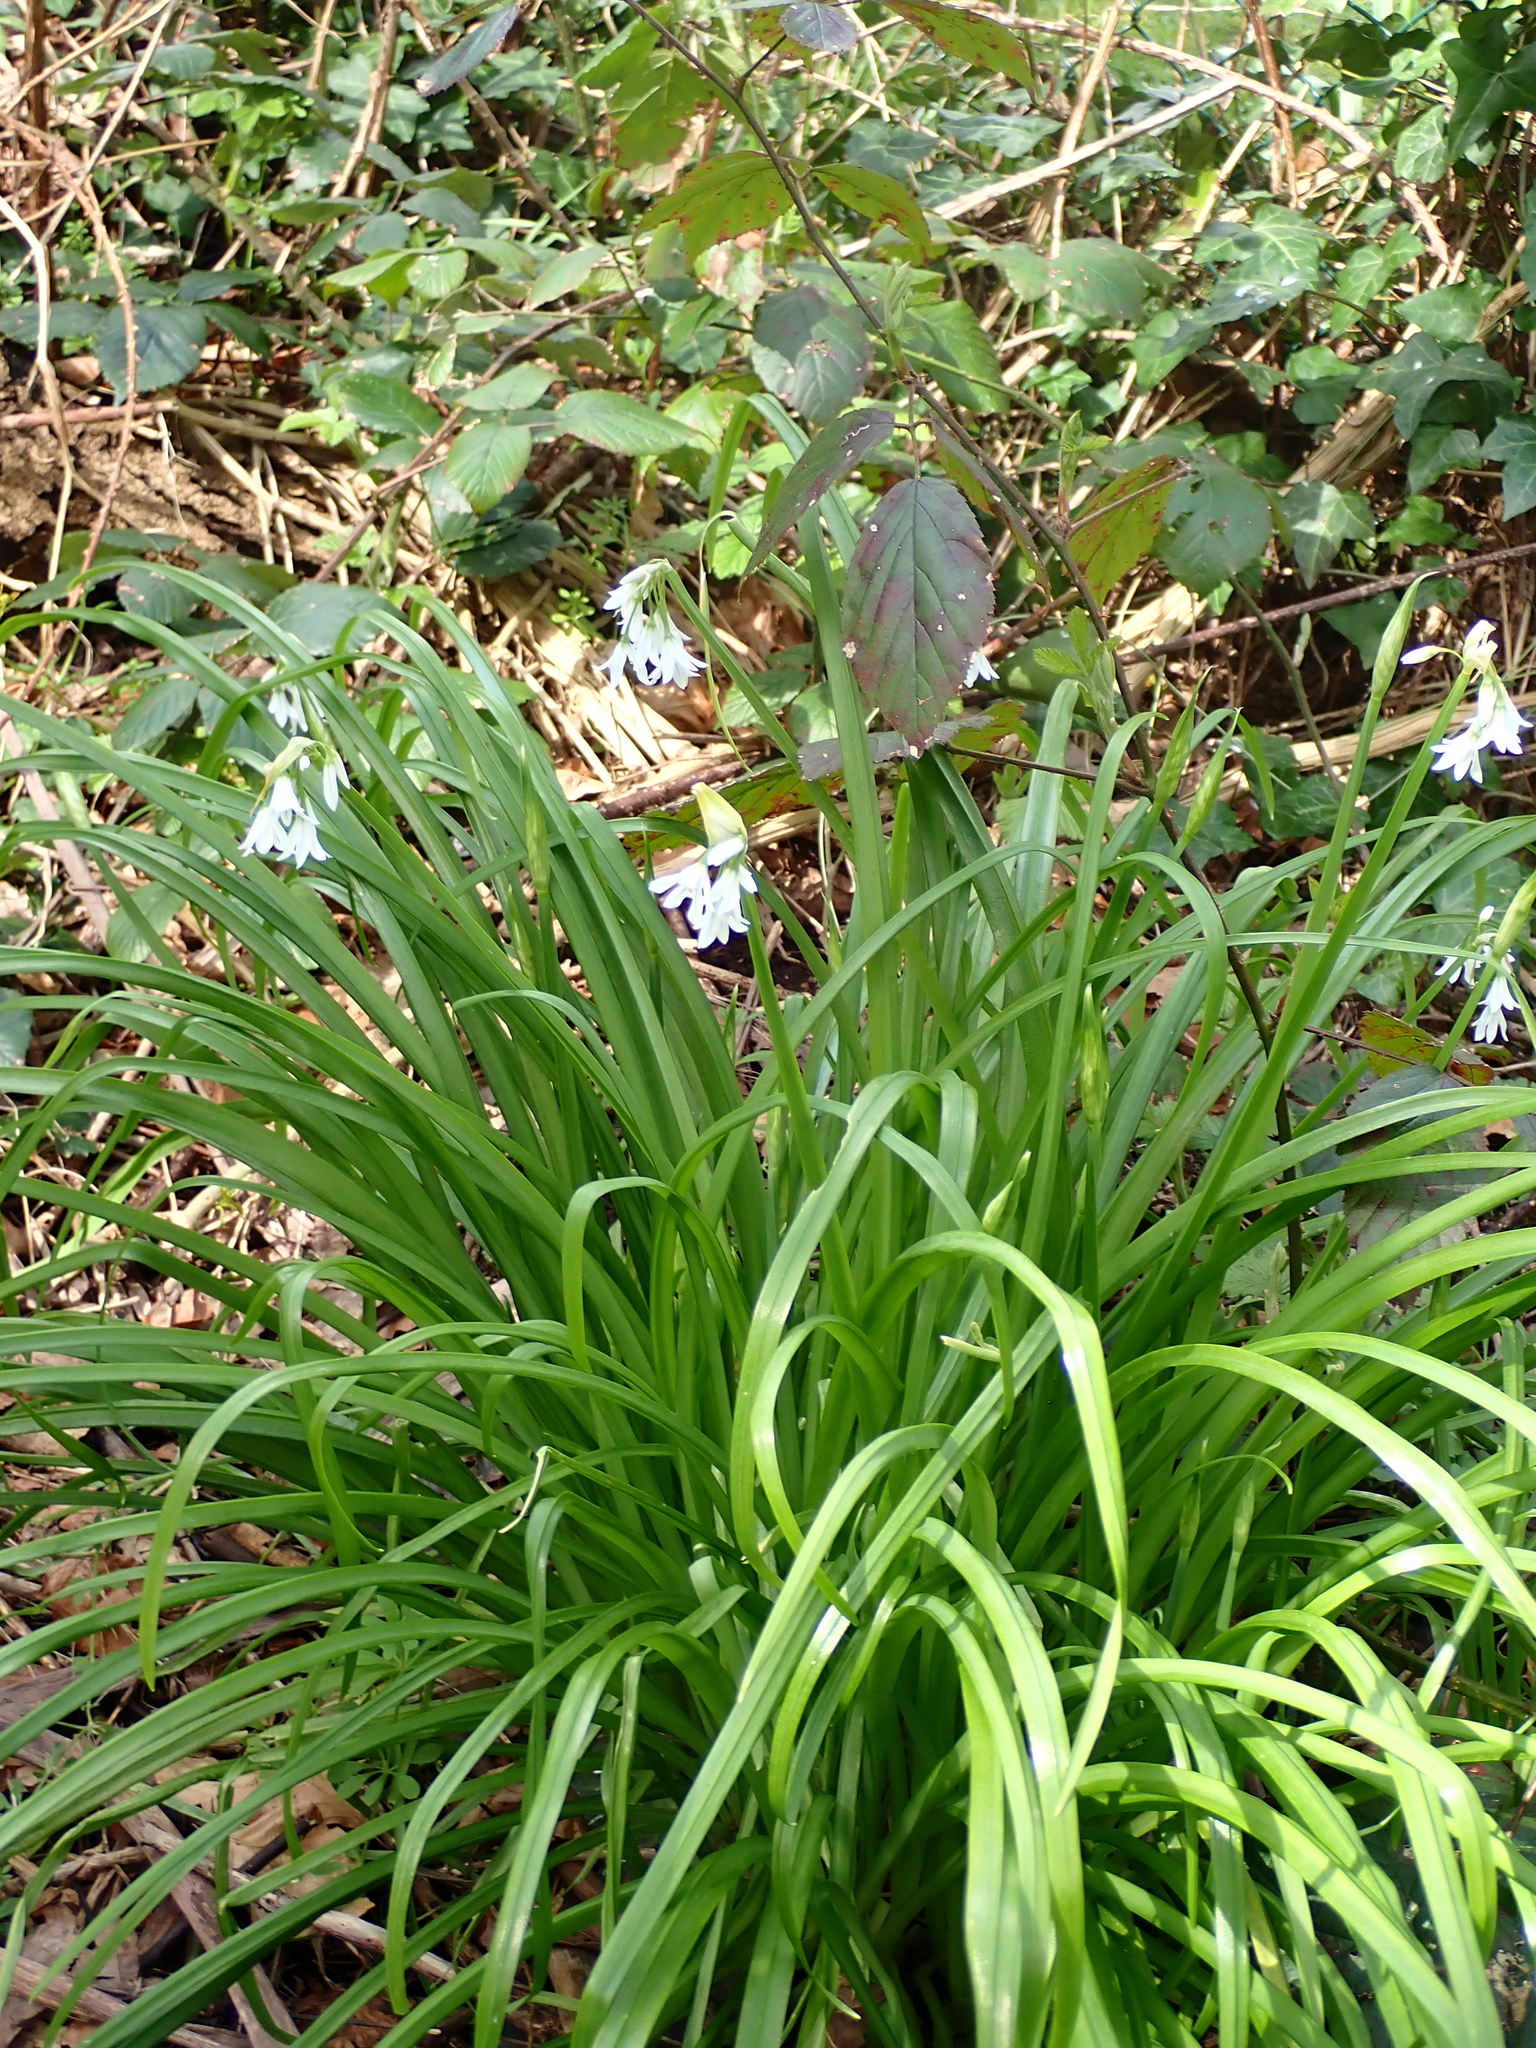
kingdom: Plantae
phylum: Tracheophyta
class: Liliopsida
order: Asparagales
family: Amaryllidaceae
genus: Allium
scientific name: Allium triquetrum
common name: Three-cornered garlic
